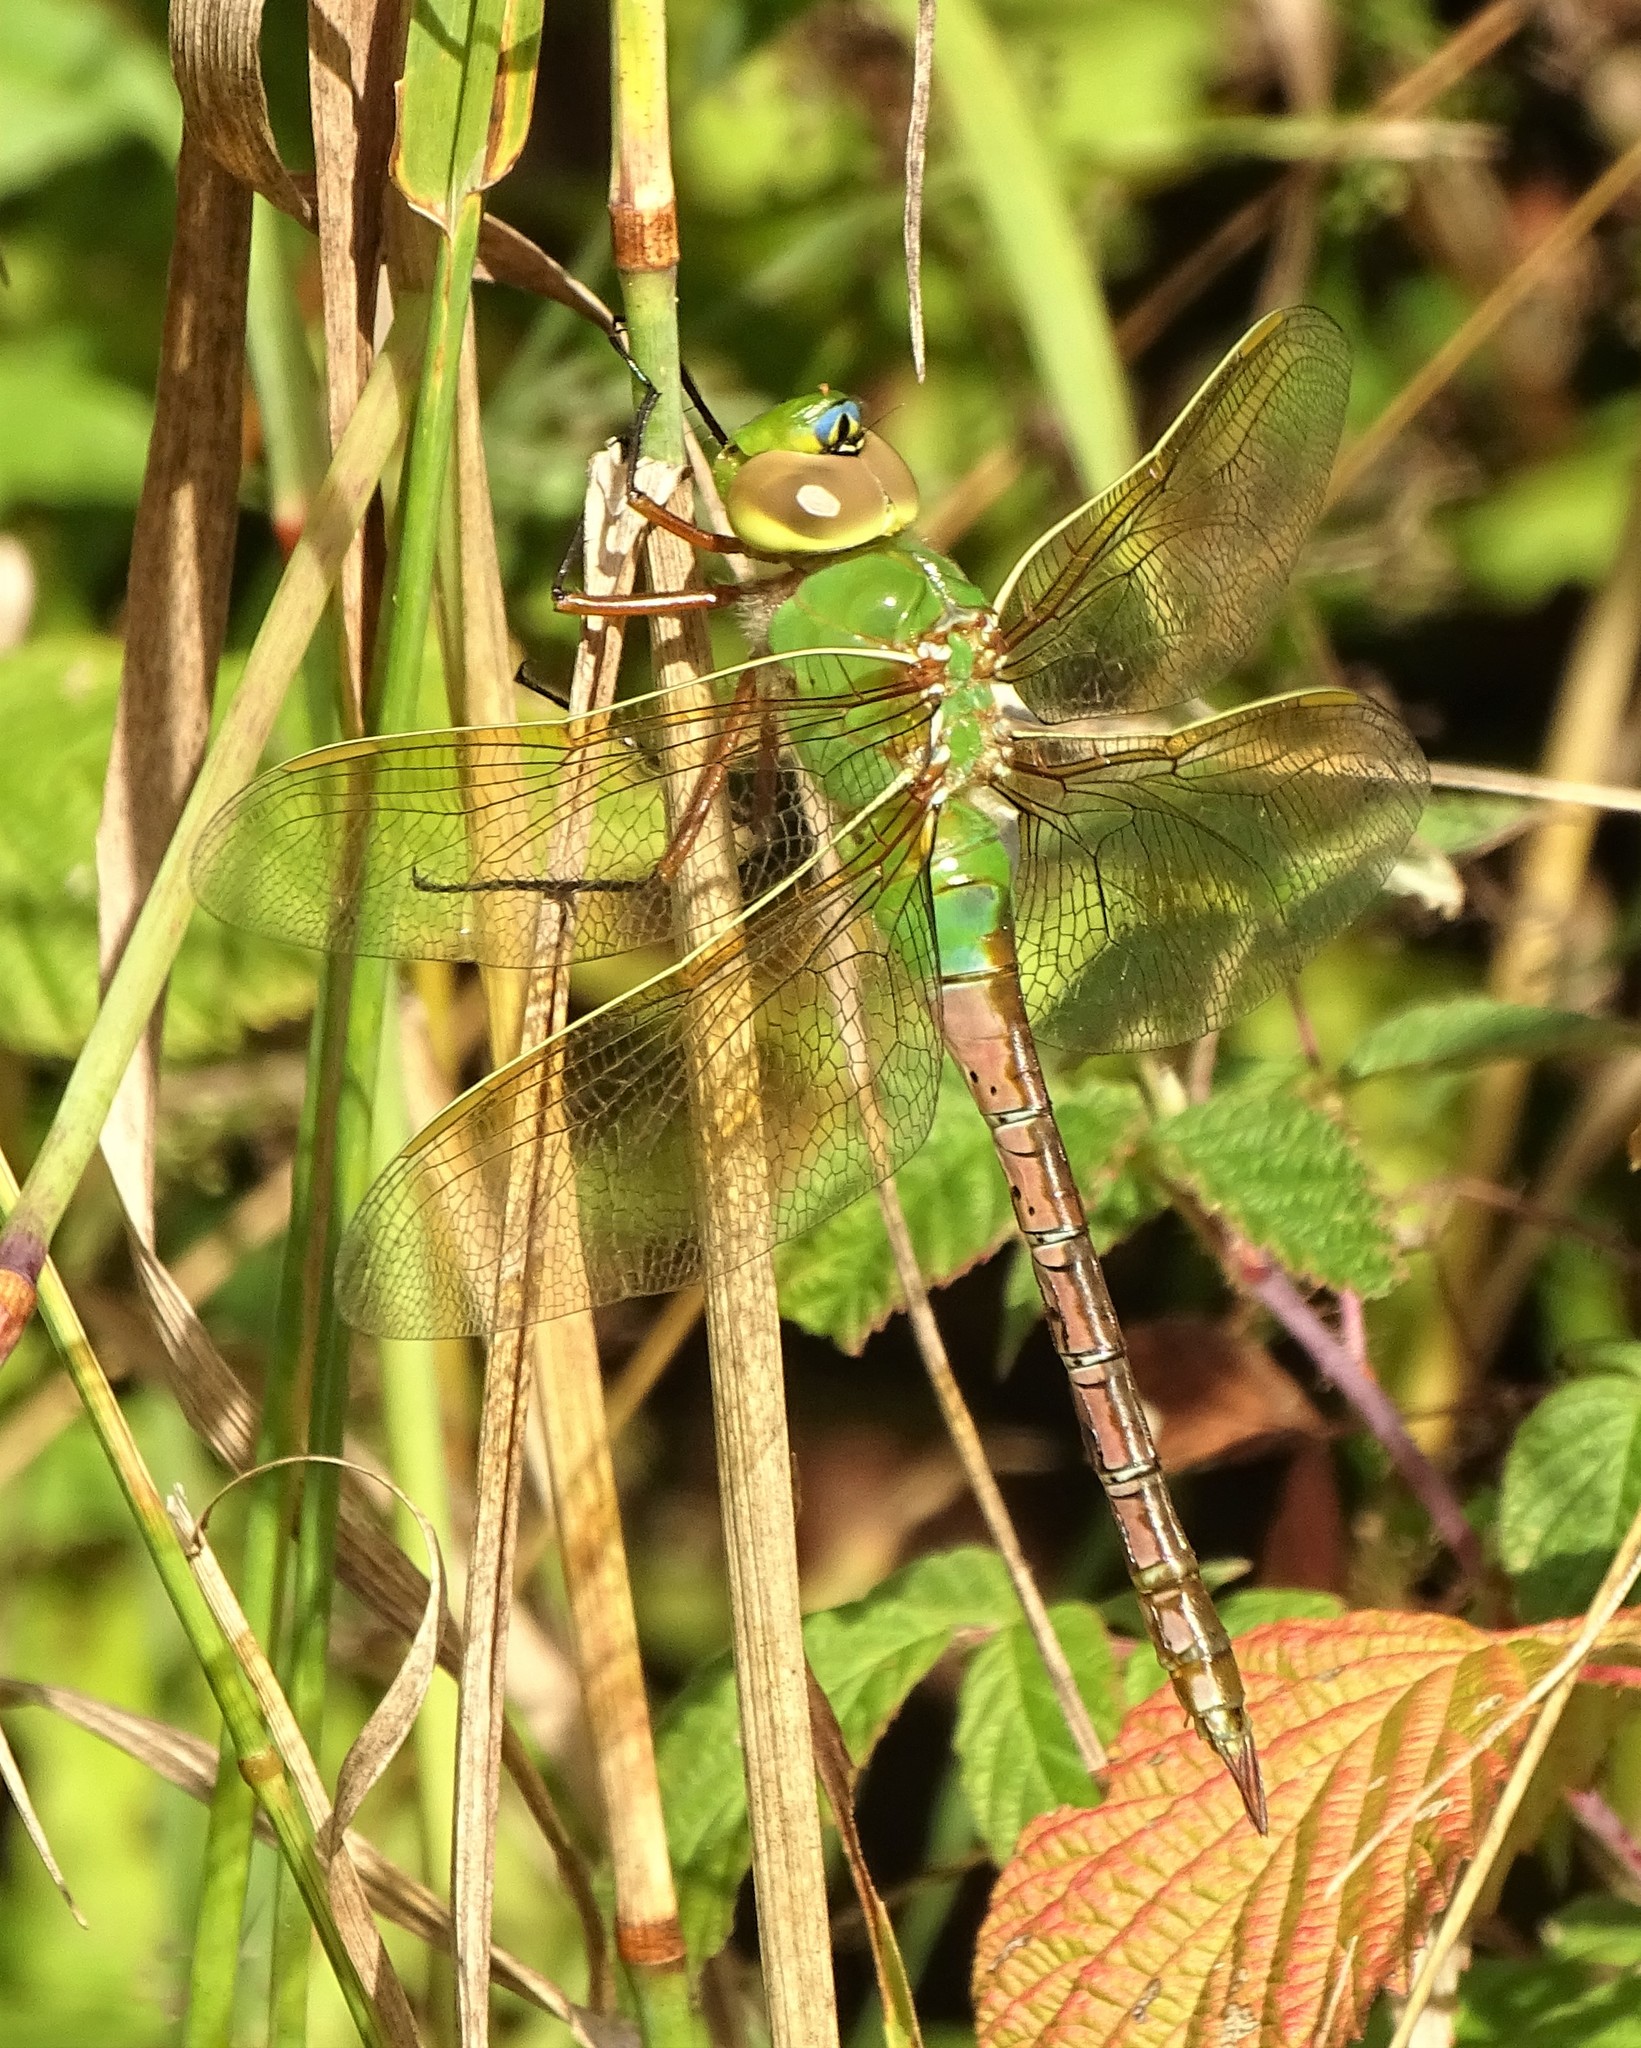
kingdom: Animalia
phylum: Arthropoda
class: Insecta
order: Odonata
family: Aeshnidae
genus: Anax
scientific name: Anax junius
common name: Common green darner
